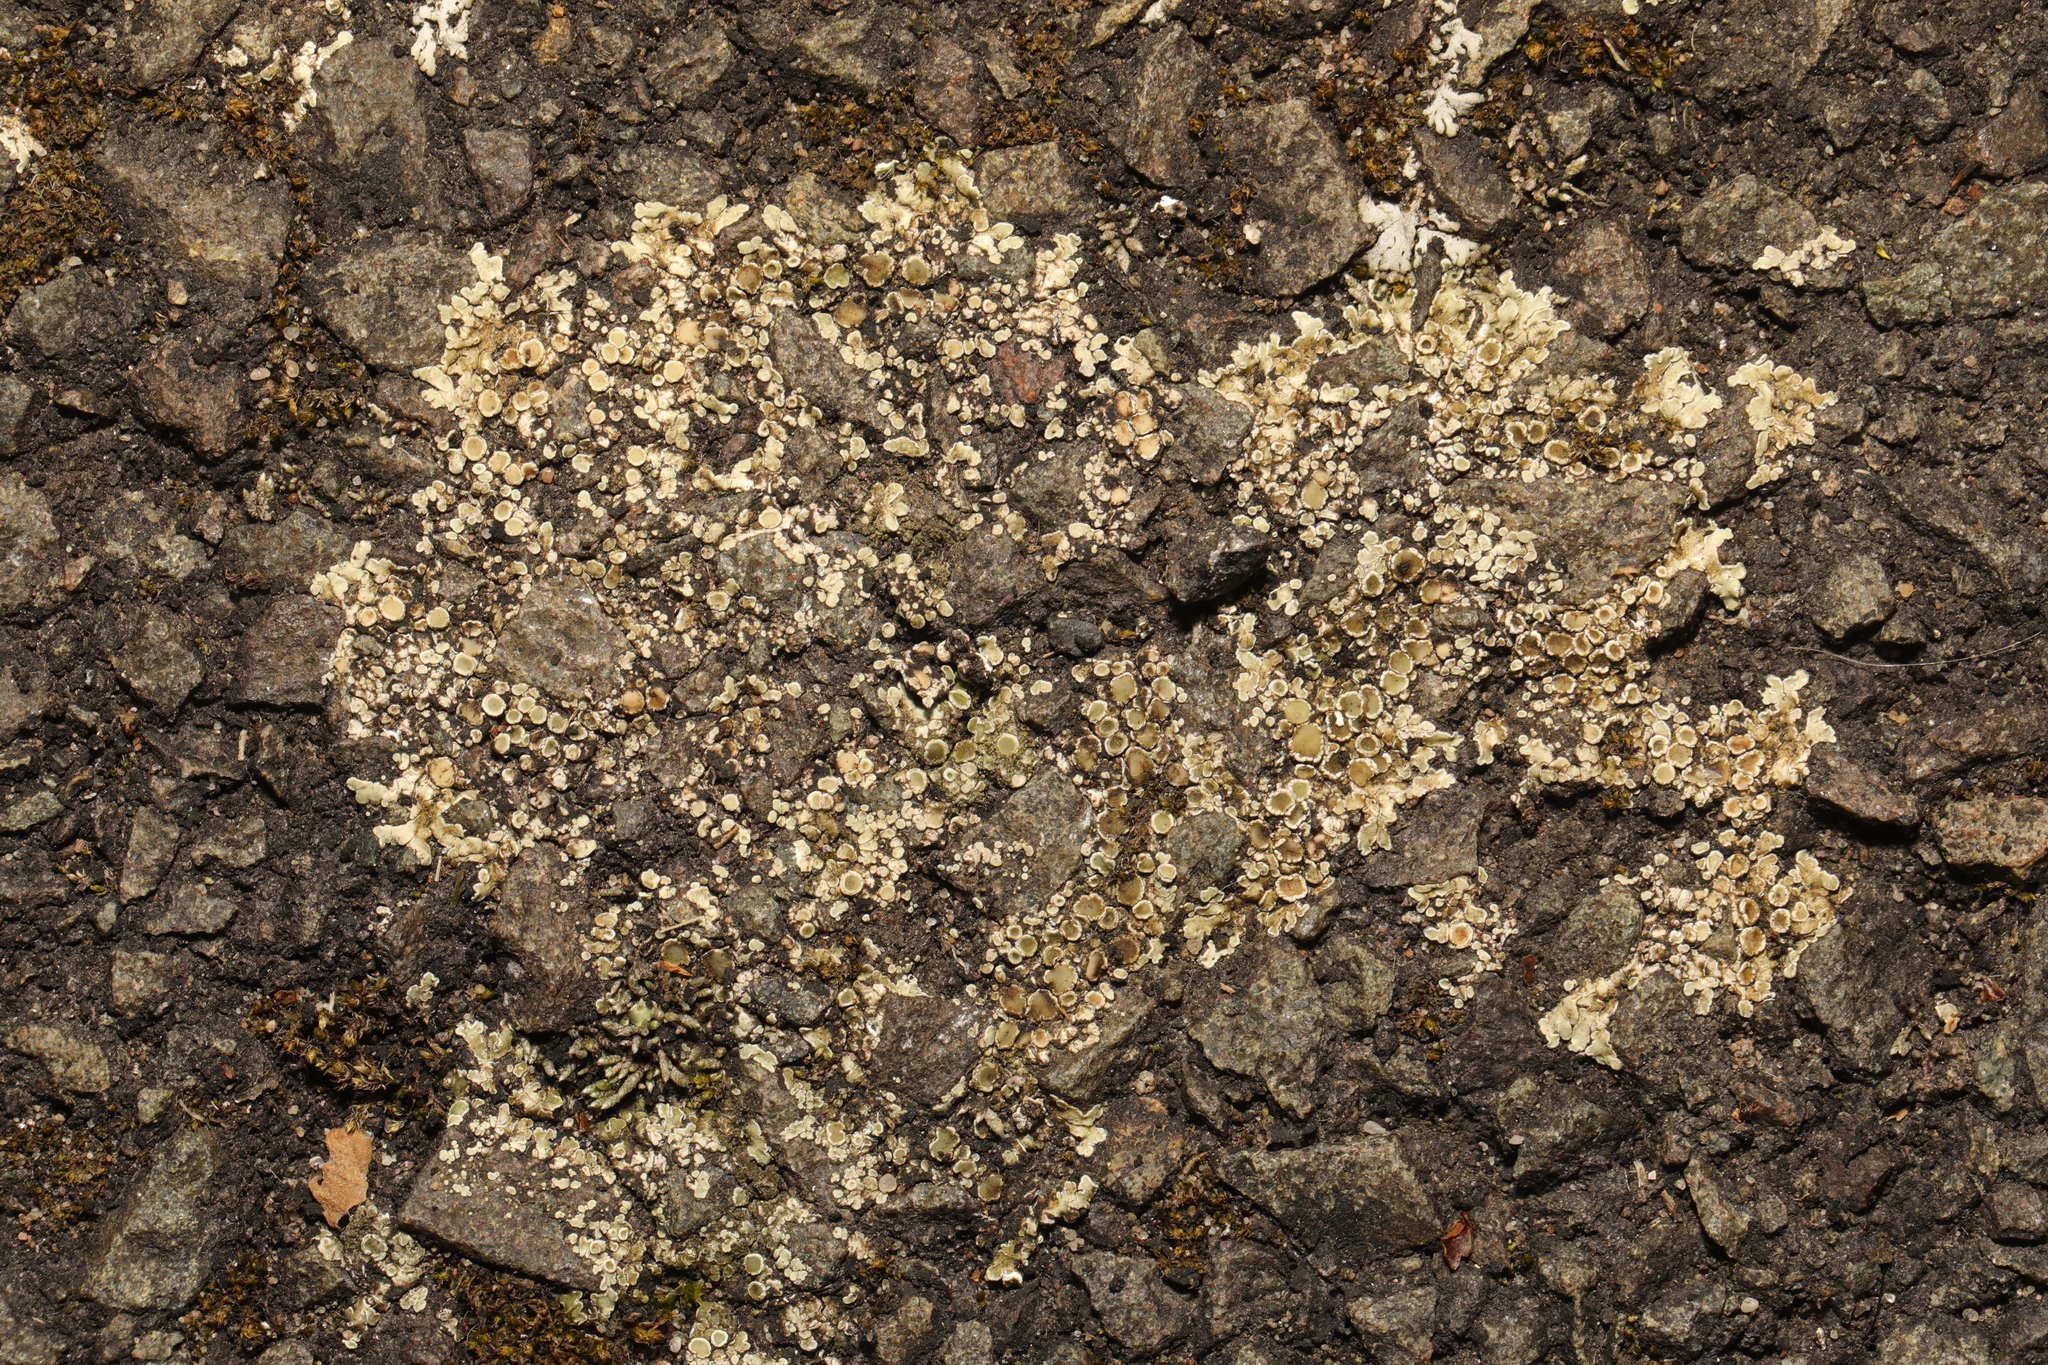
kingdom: Fungi
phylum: Ascomycota
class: Lecanoromycetes
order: Lecanorales
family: Lecanoraceae
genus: Protoparmeliopsis
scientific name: Protoparmeliopsis muralis
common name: Stonewall rim lichen
